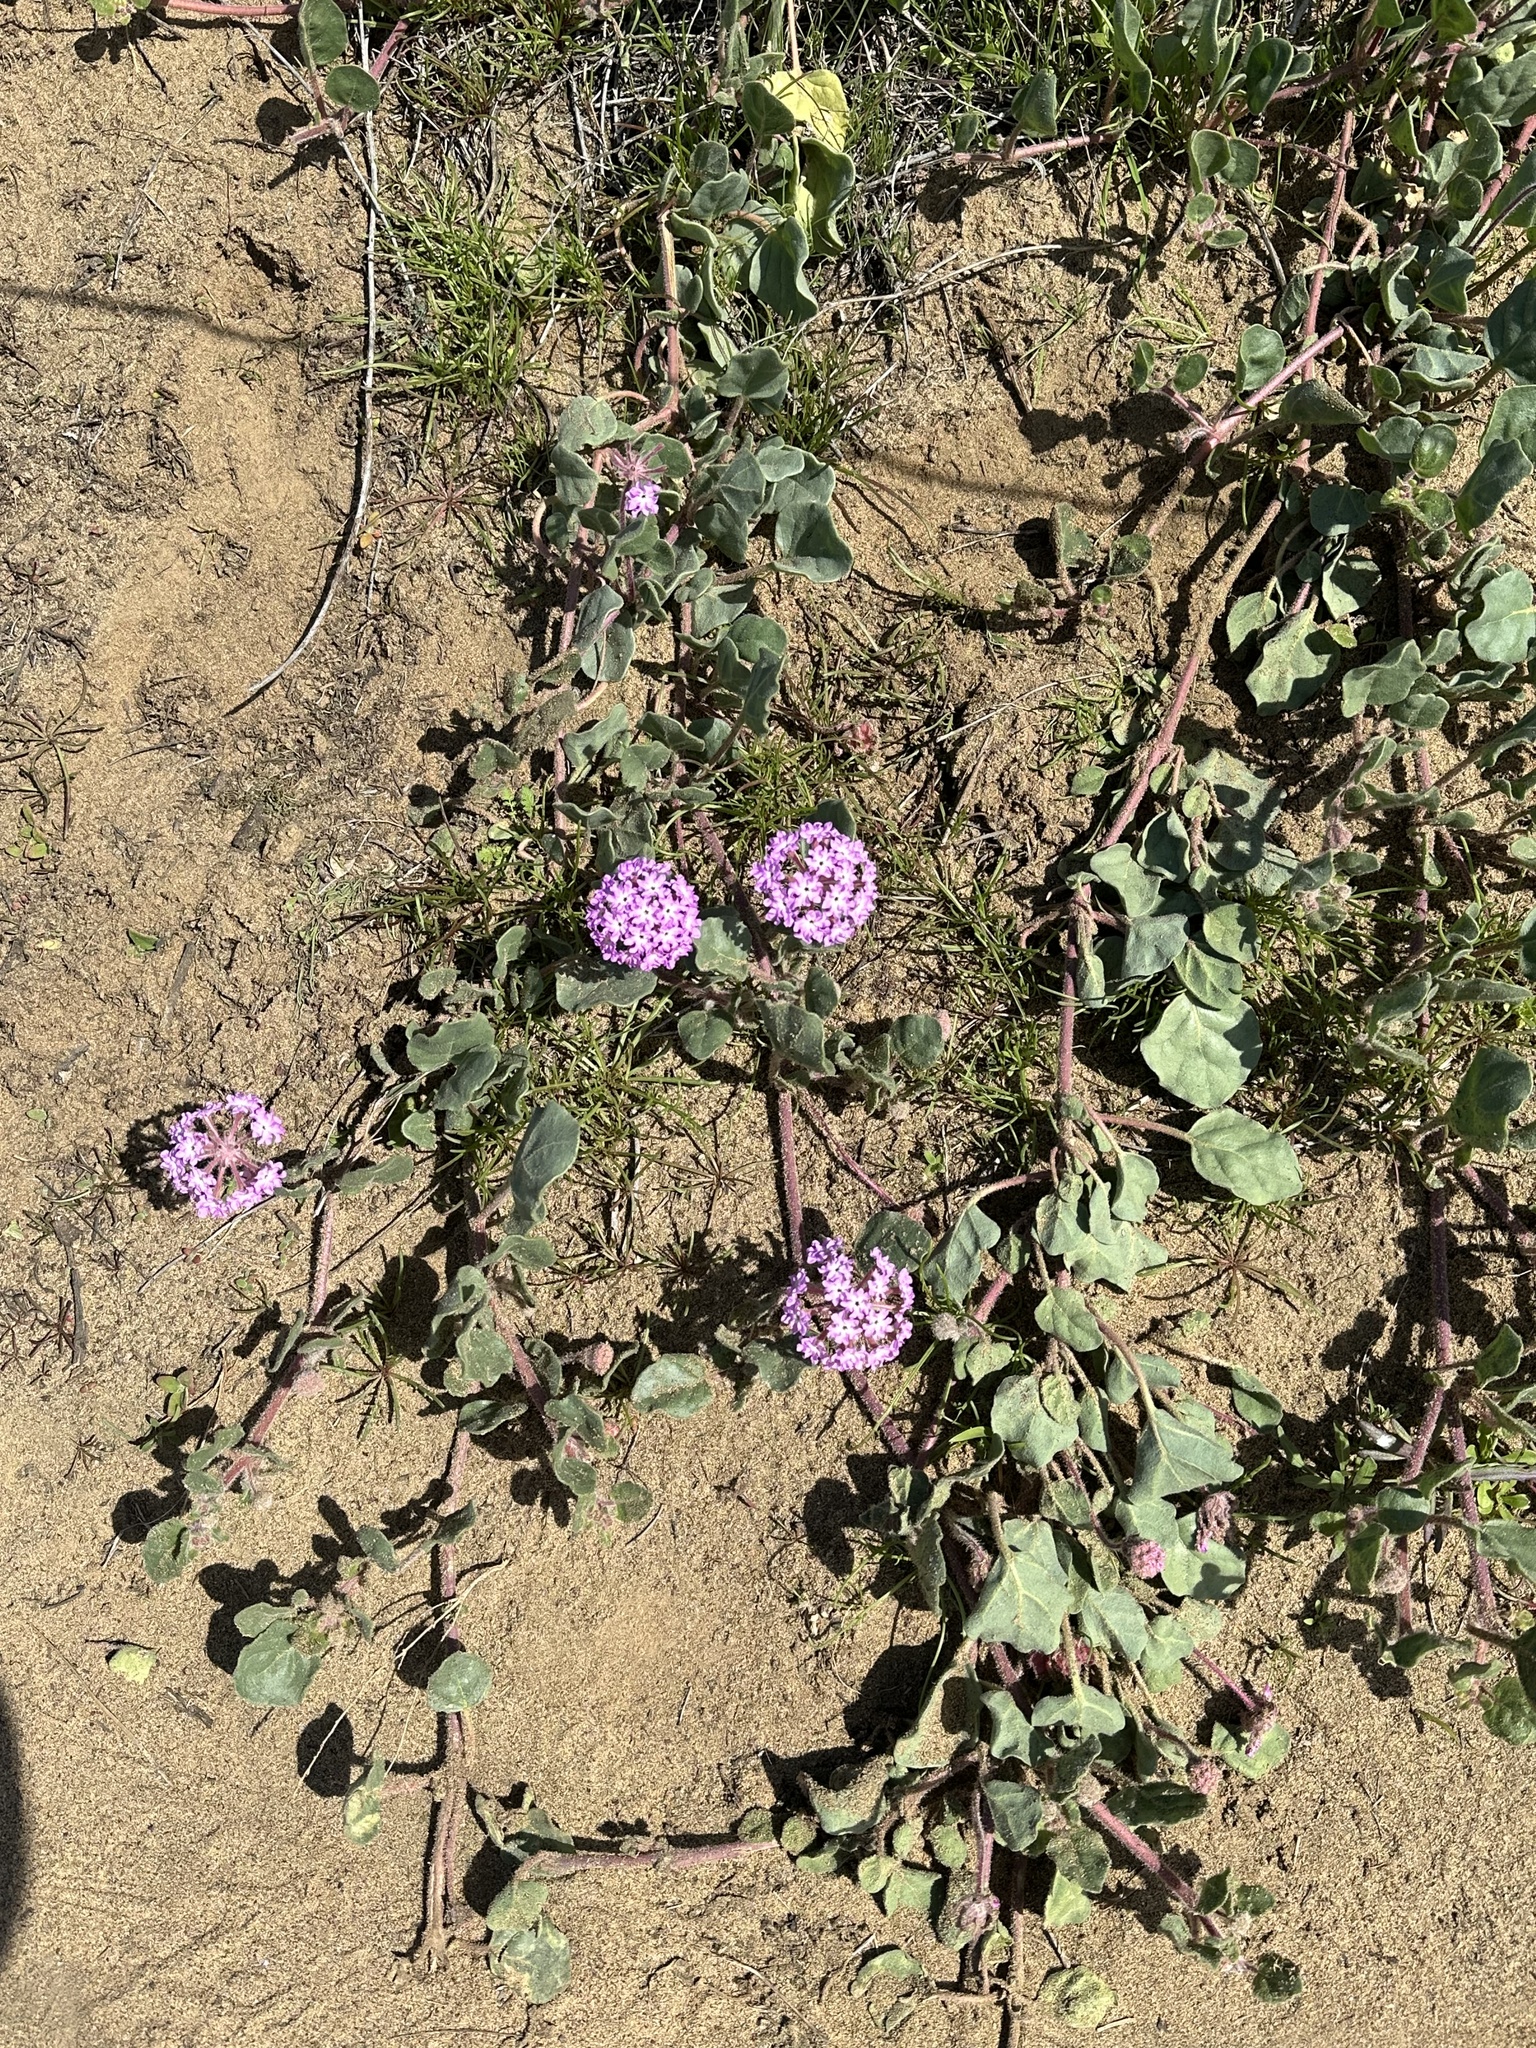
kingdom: Plantae
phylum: Tracheophyta
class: Magnoliopsida
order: Caryophyllales
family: Nyctaginaceae
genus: Abronia
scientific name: Abronia umbellata
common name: Sand-verbena
